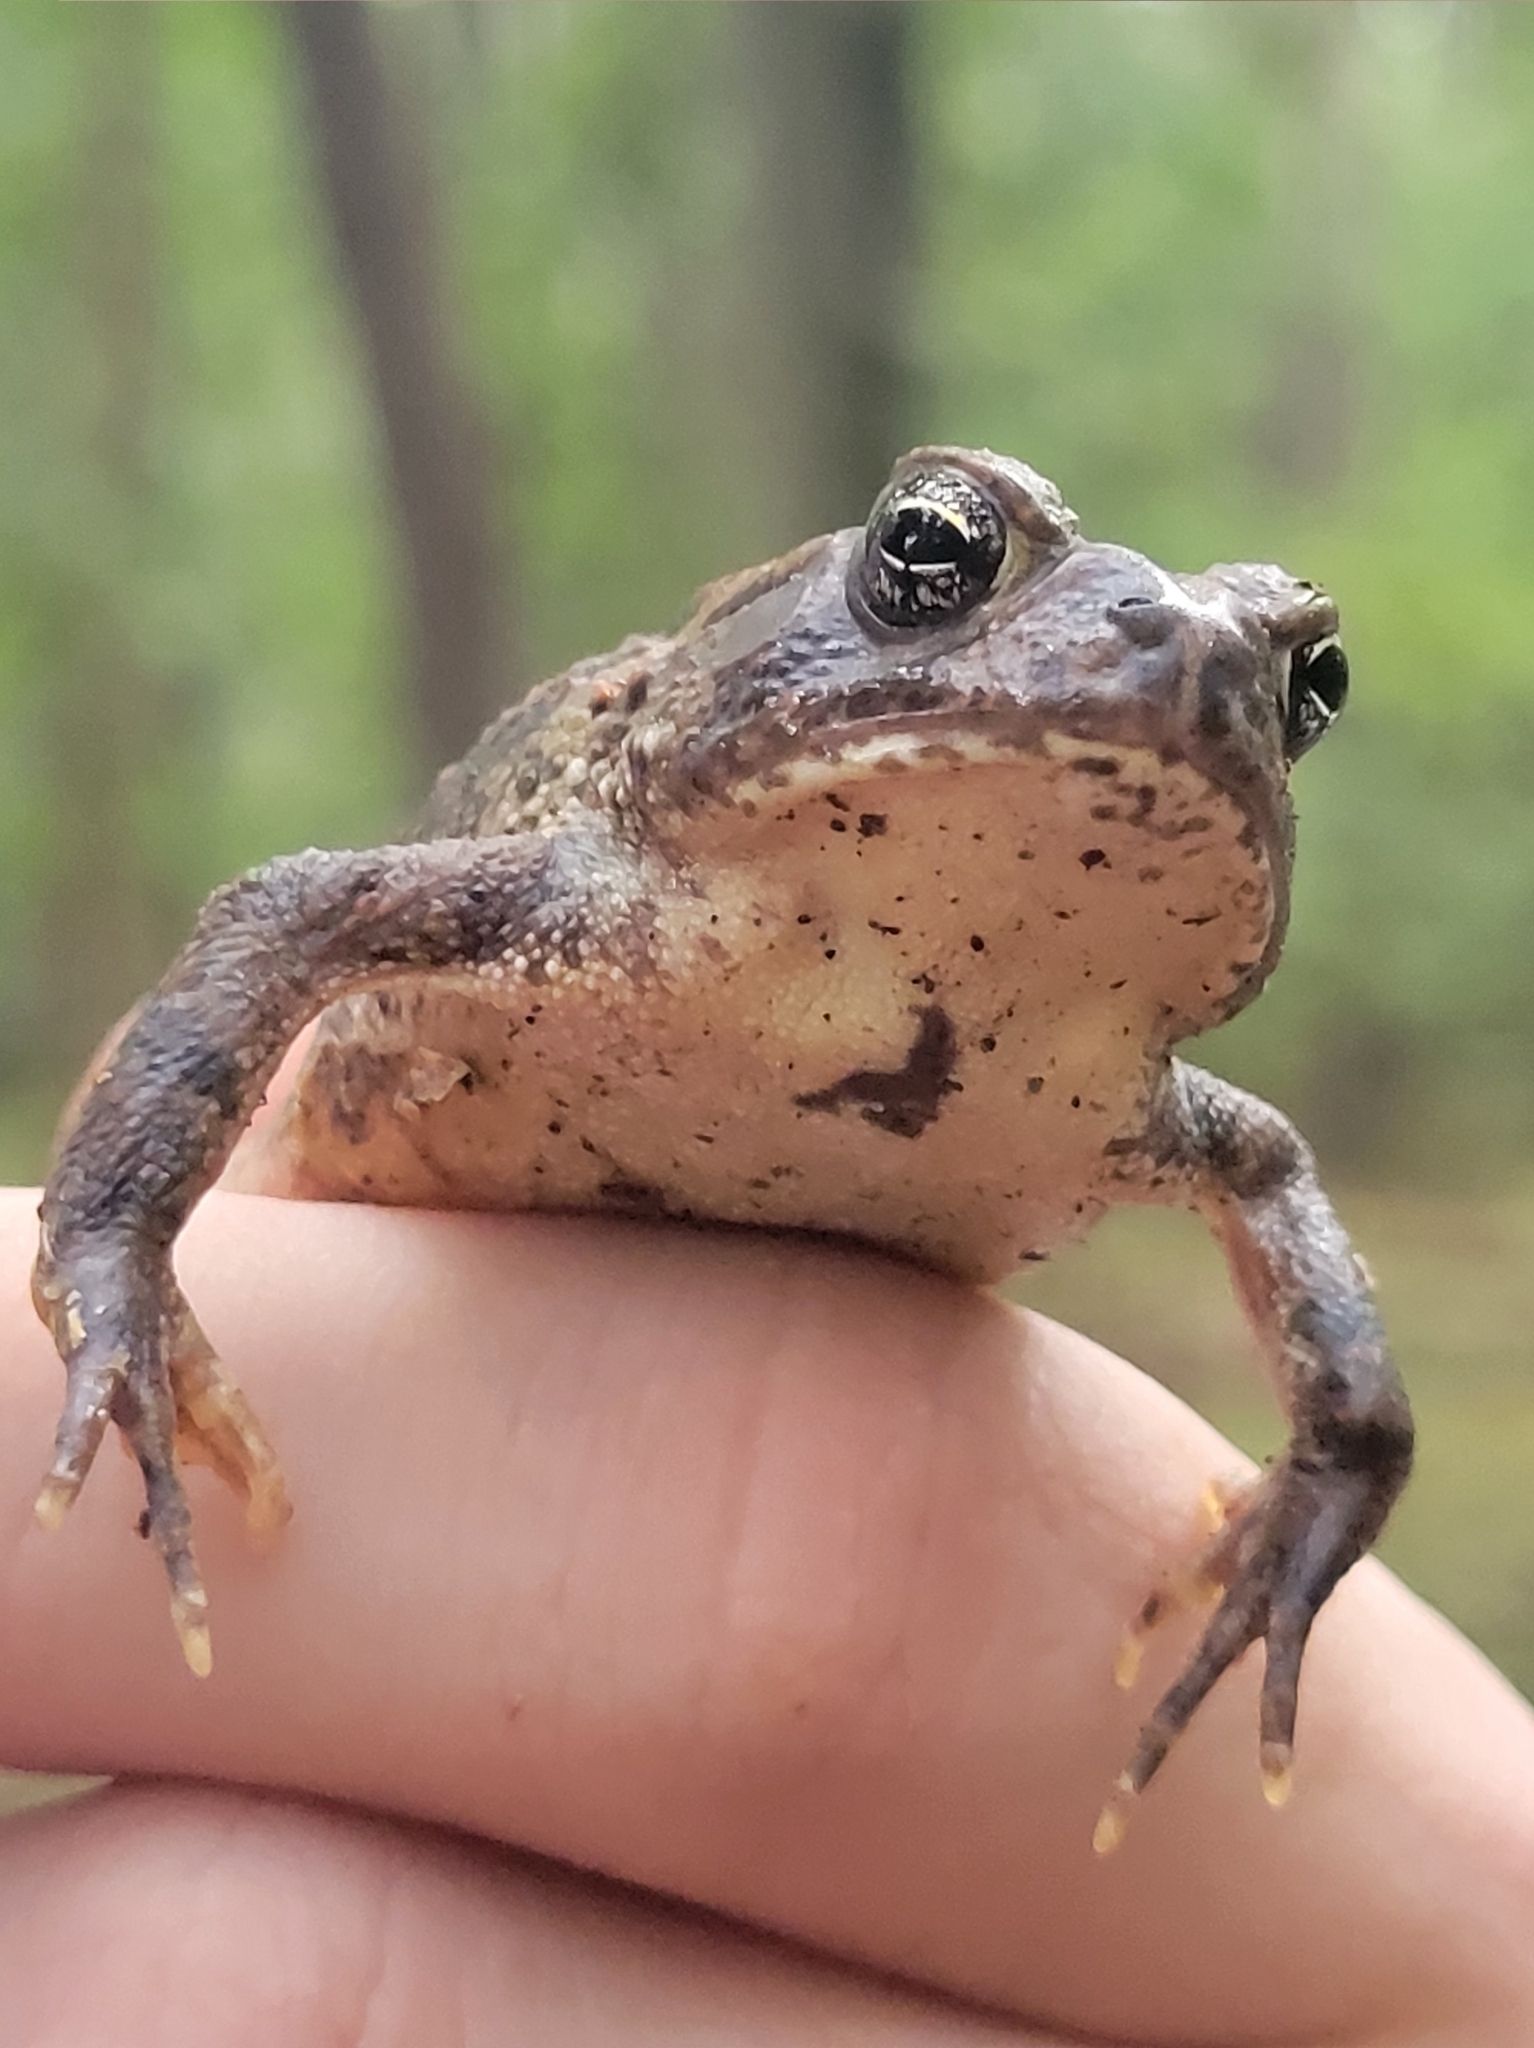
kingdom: Animalia
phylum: Chordata
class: Amphibia
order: Anura
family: Bufonidae
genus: Anaxyrus
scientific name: Anaxyrus fowleri
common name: Fowler's toad
